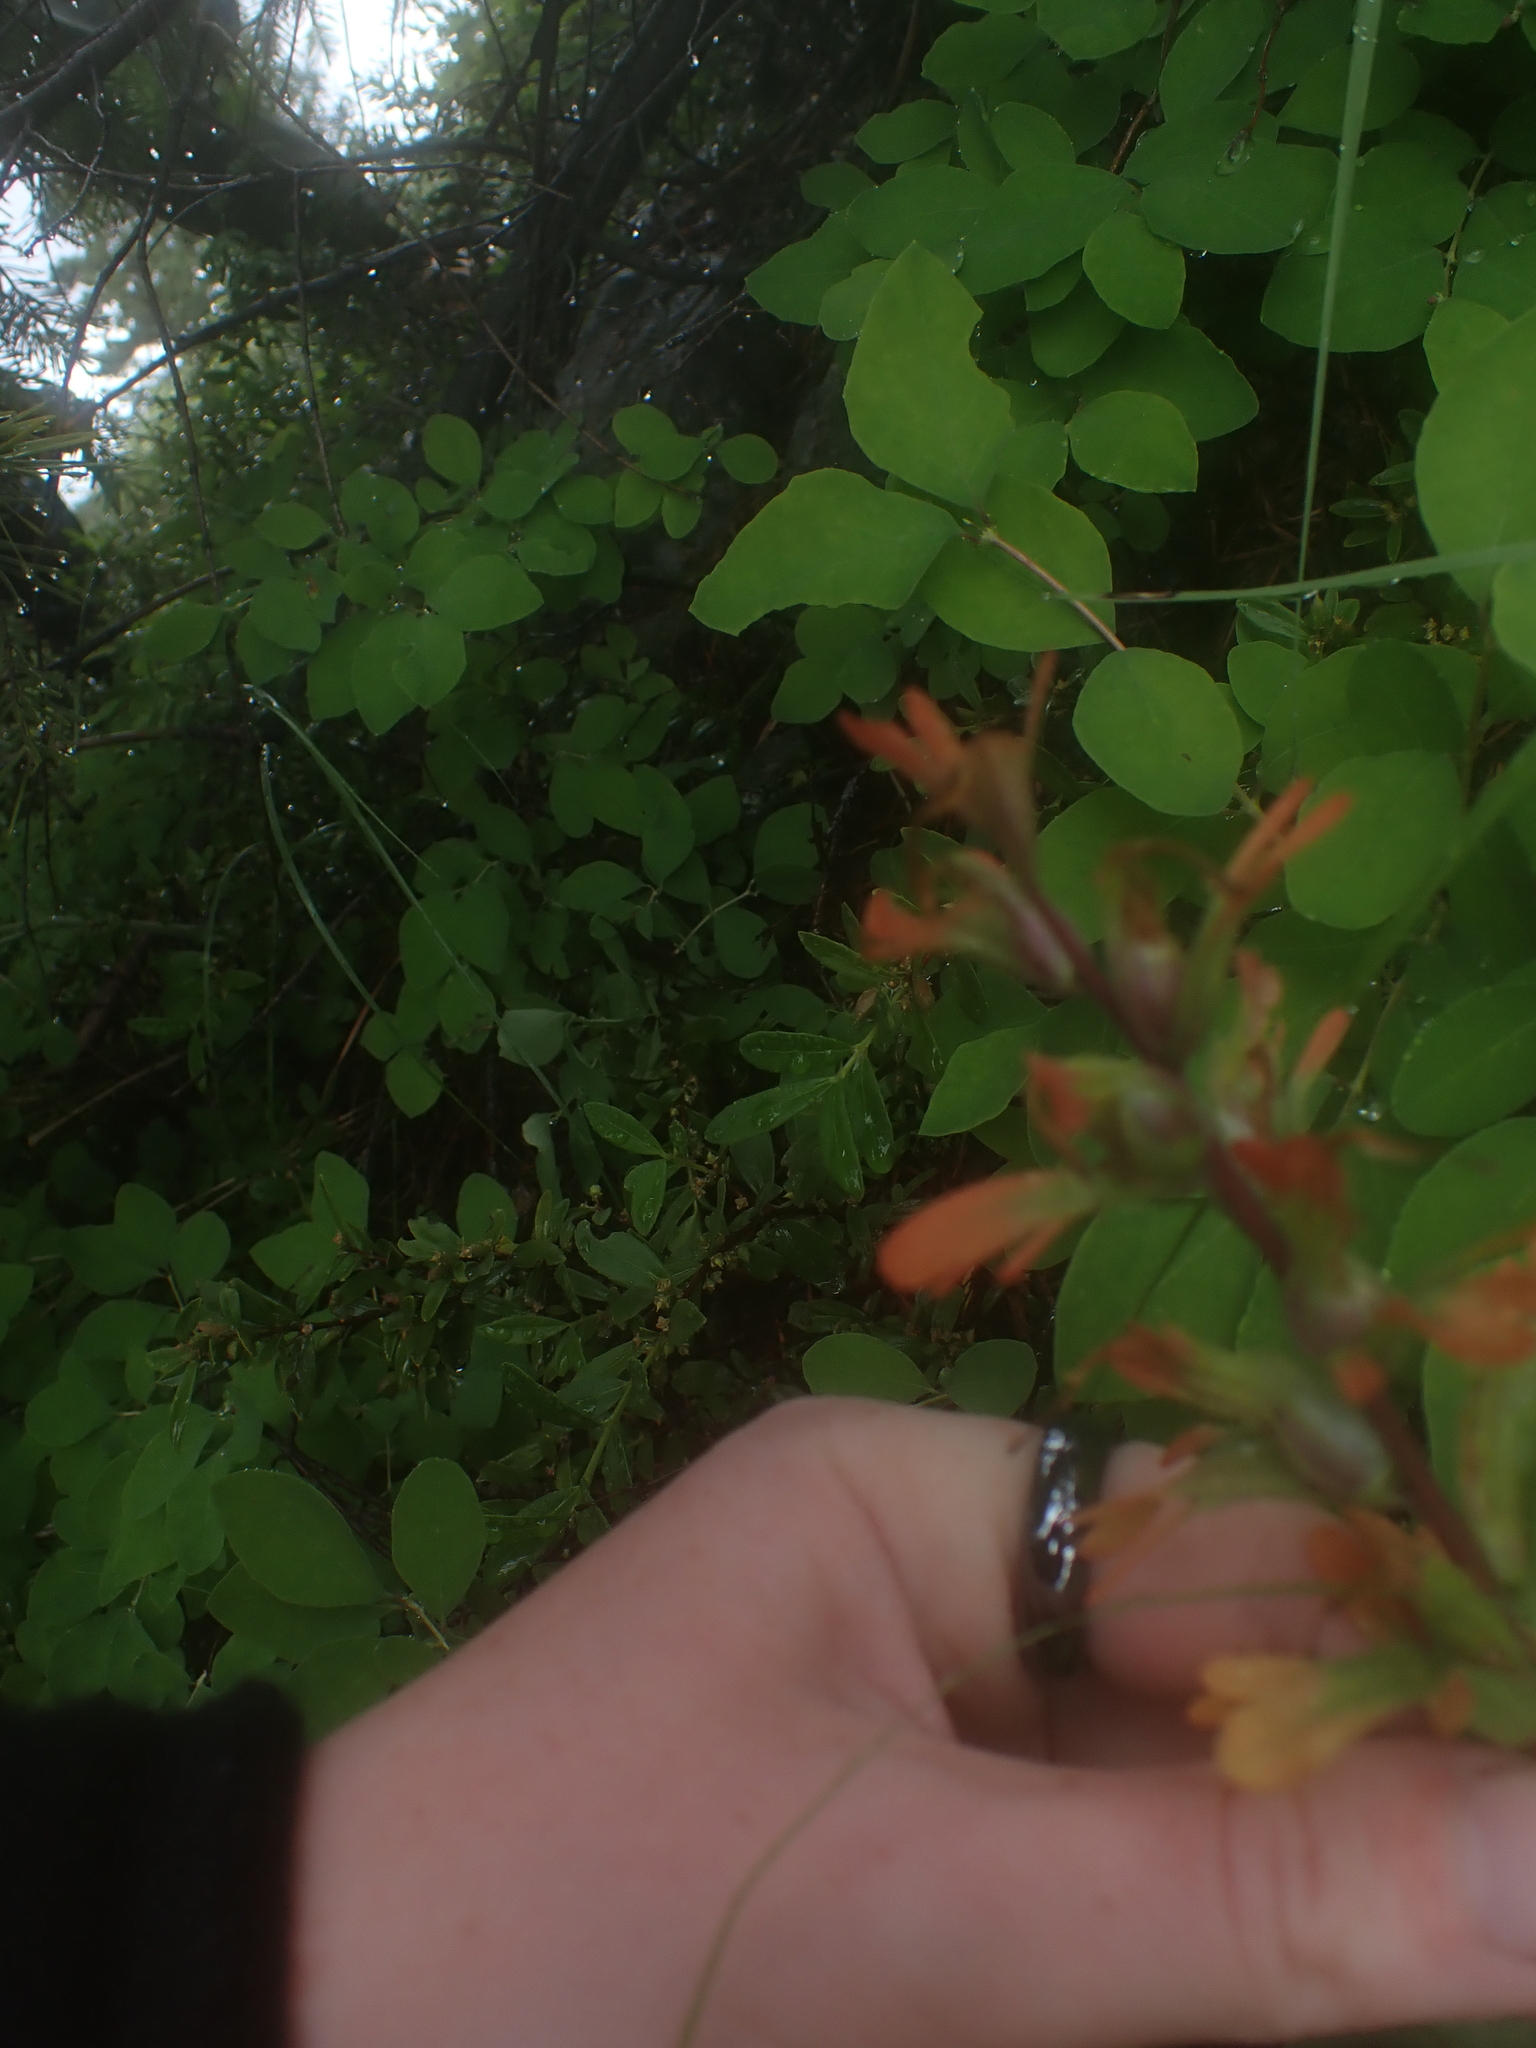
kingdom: Plantae
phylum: Tracheophyta
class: Magnoliopsida
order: Lamiales
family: Orobanchaceae
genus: Castilleja
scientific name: Castilleja hispida
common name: Bristly paintbrush
